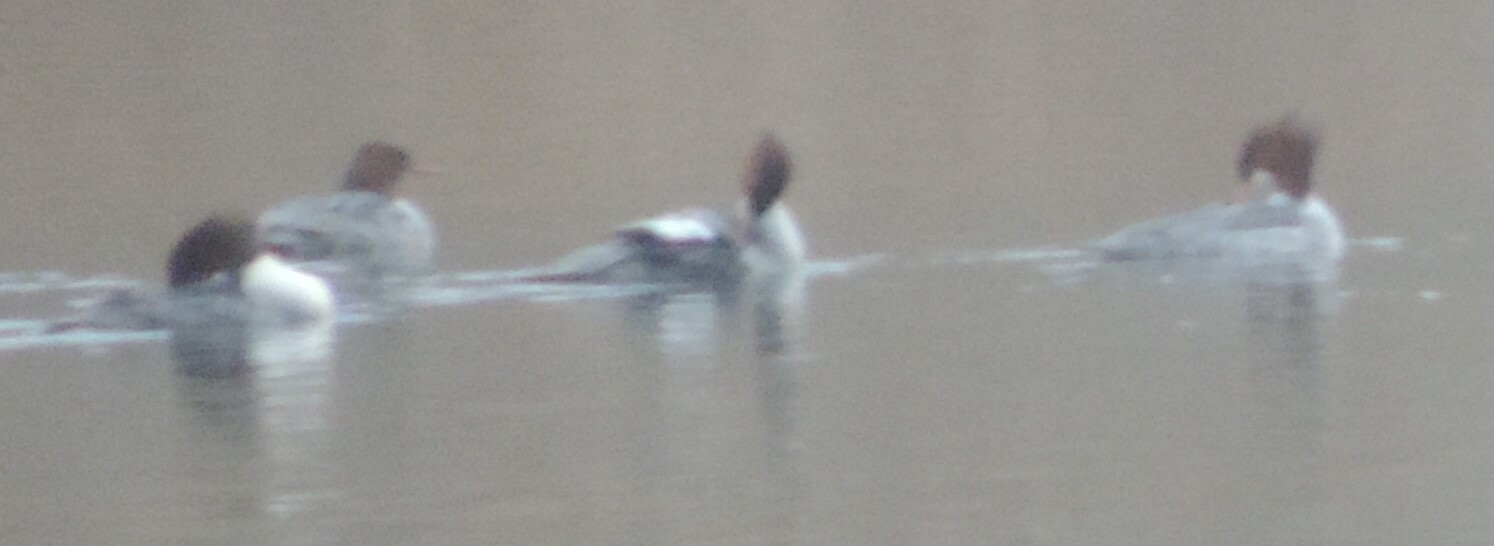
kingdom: Animalia
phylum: Chordata
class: Aves
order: Anseriformes
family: Anatidae
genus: Mergus
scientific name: Mergus merganser
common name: Common merganser
